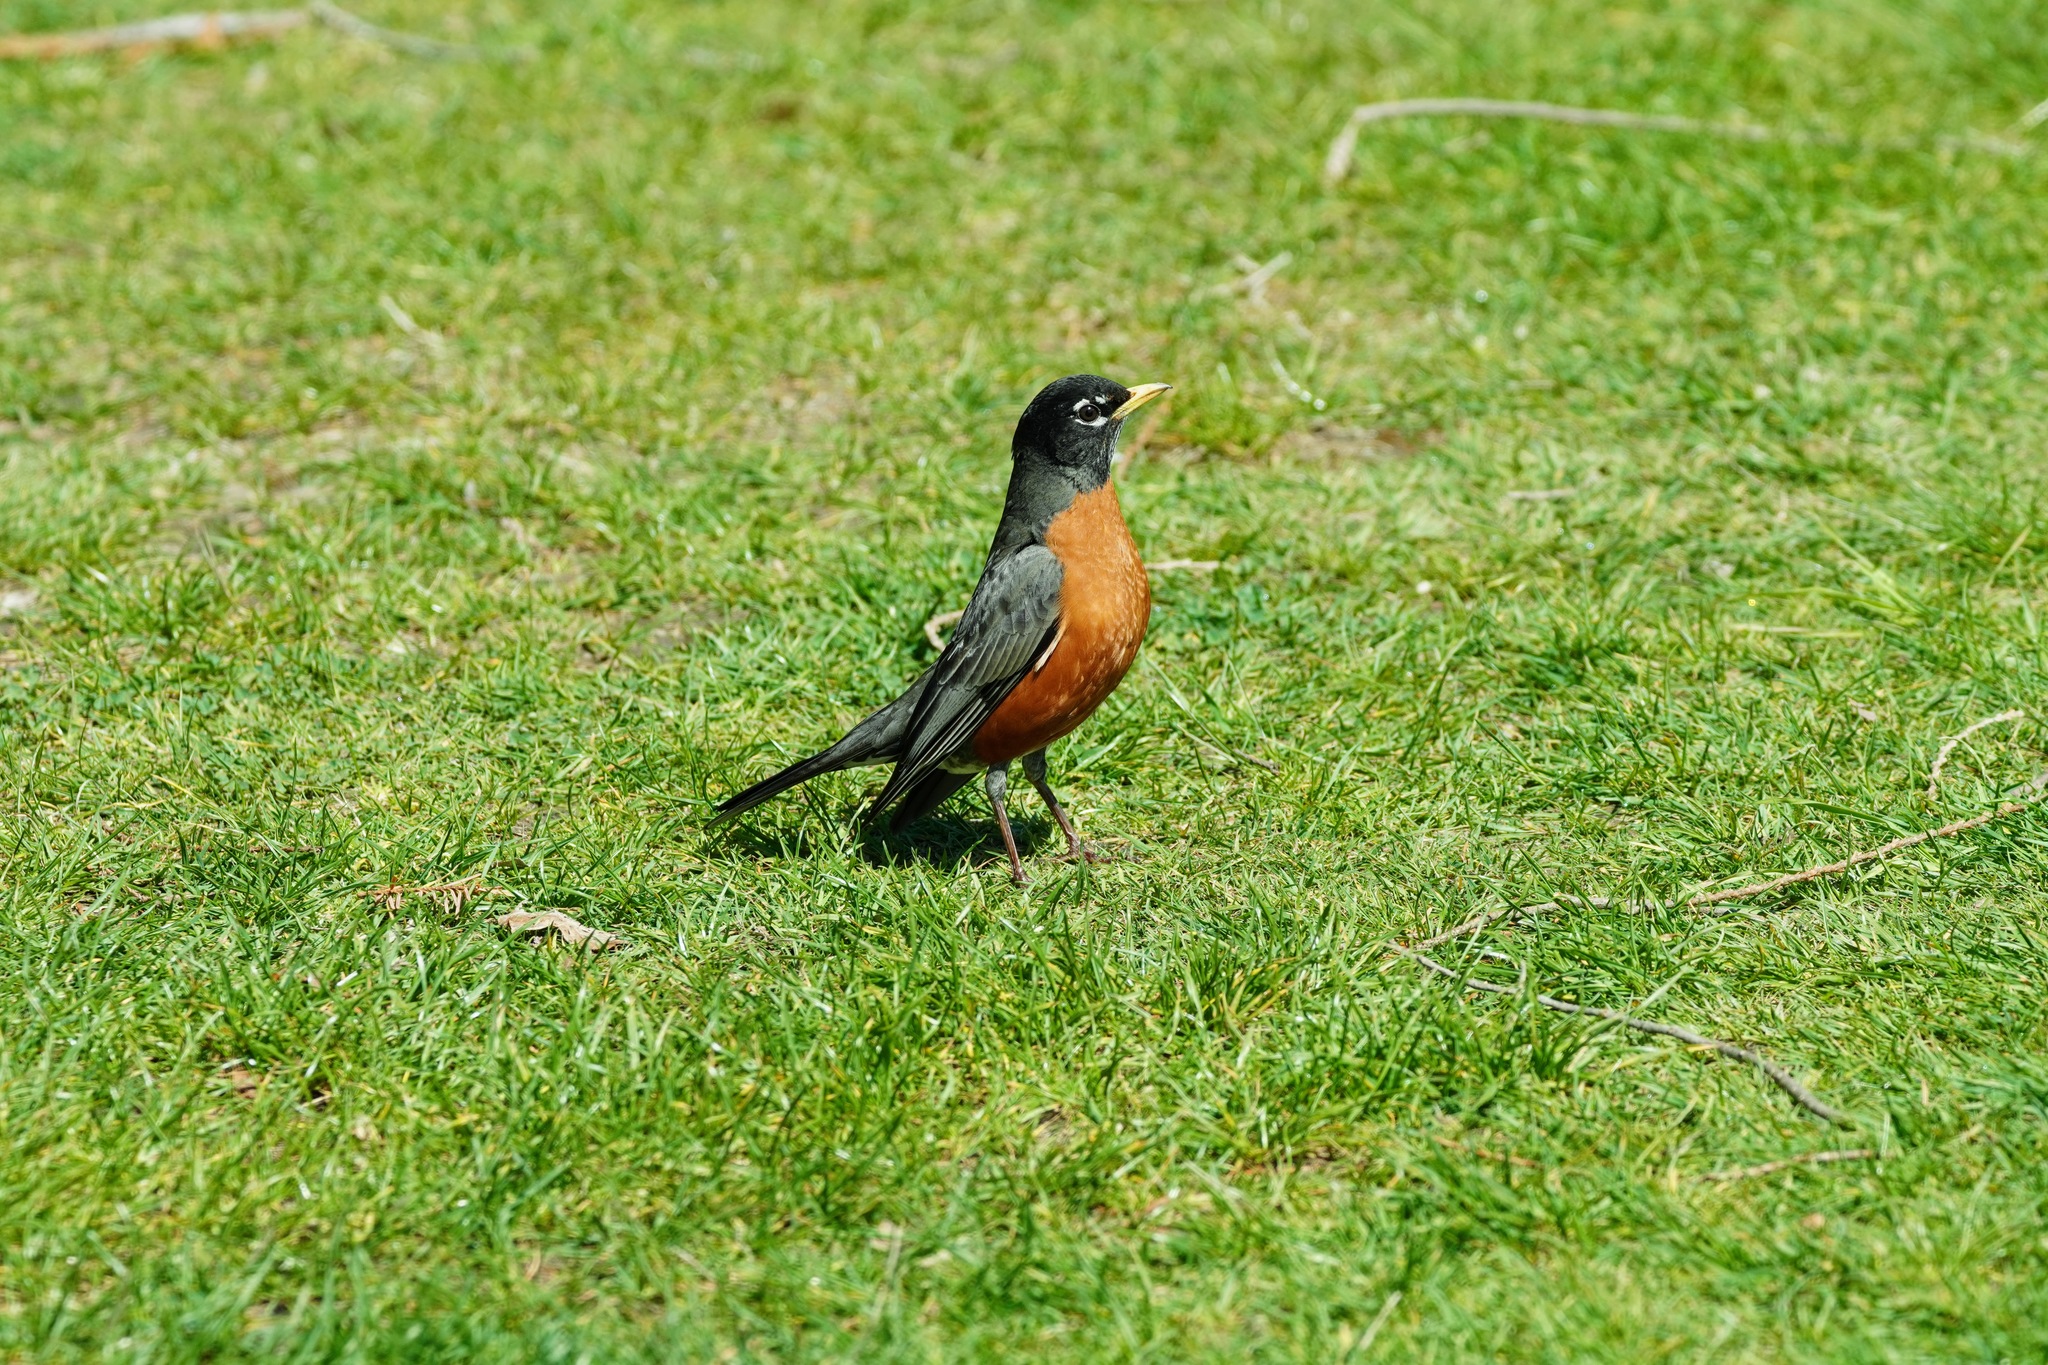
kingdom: Animalia
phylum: Chordata
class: Aves
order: Passeriformes
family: Turdidae
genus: Turdus
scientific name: Turdus migratorius
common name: American robin
